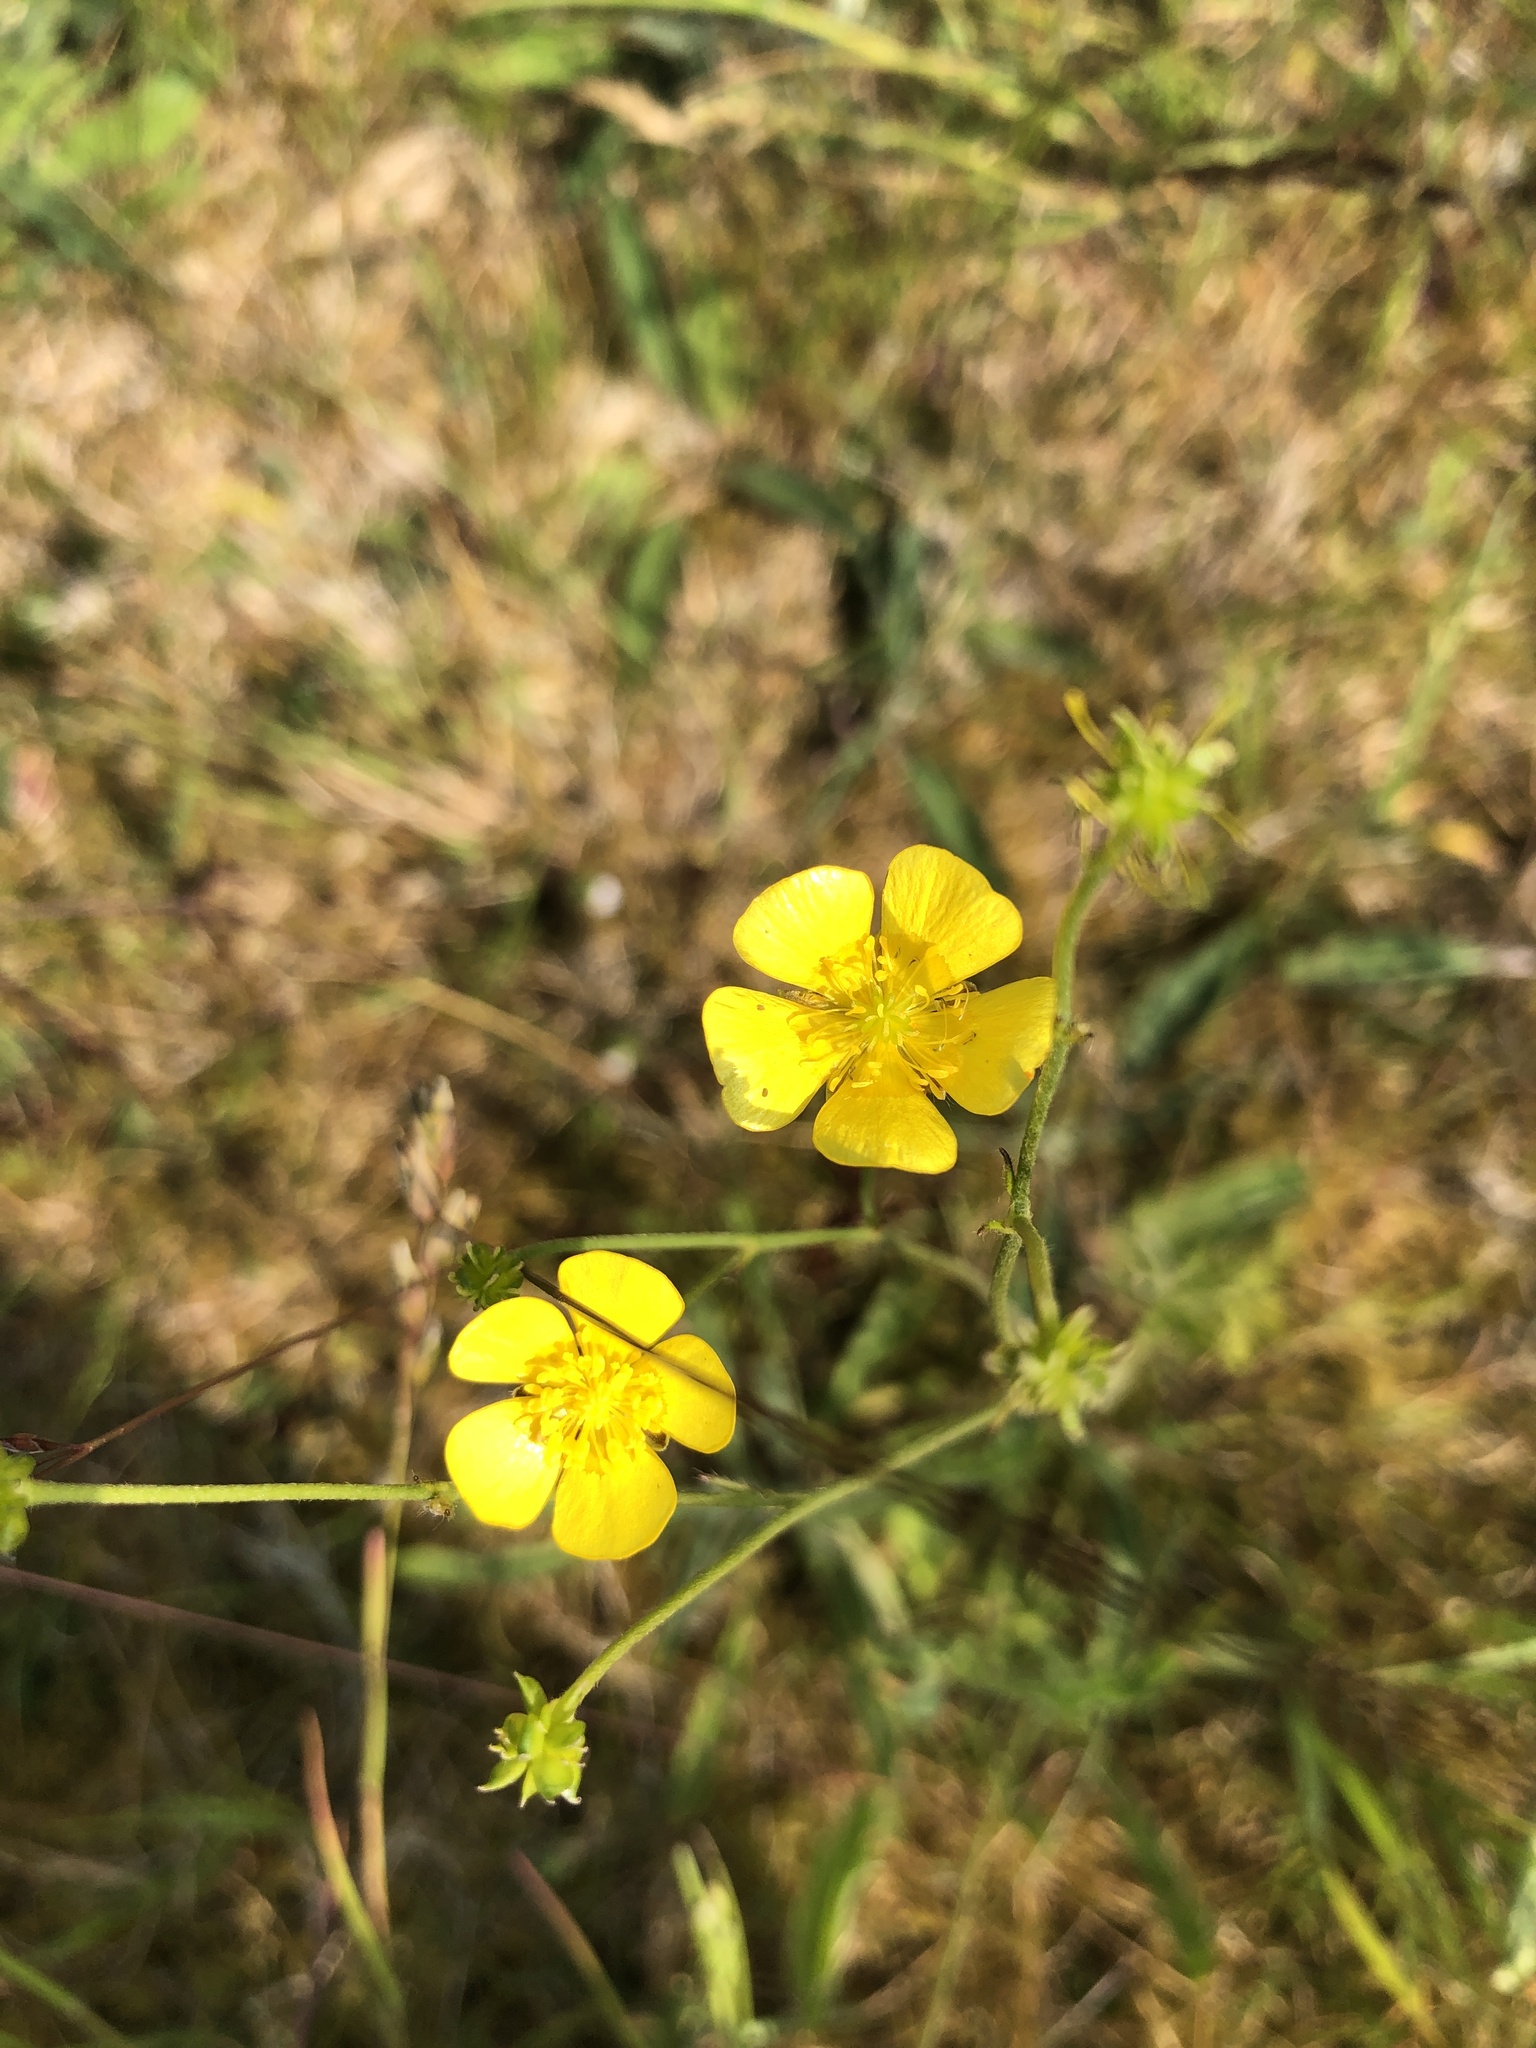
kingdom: Plantae
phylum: Tracheophyta
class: Magnoliopsida
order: Ranunculales
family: Ranunculaceae
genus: Ranunculus
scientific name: Ranunculus acris
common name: Meadow buttercup
